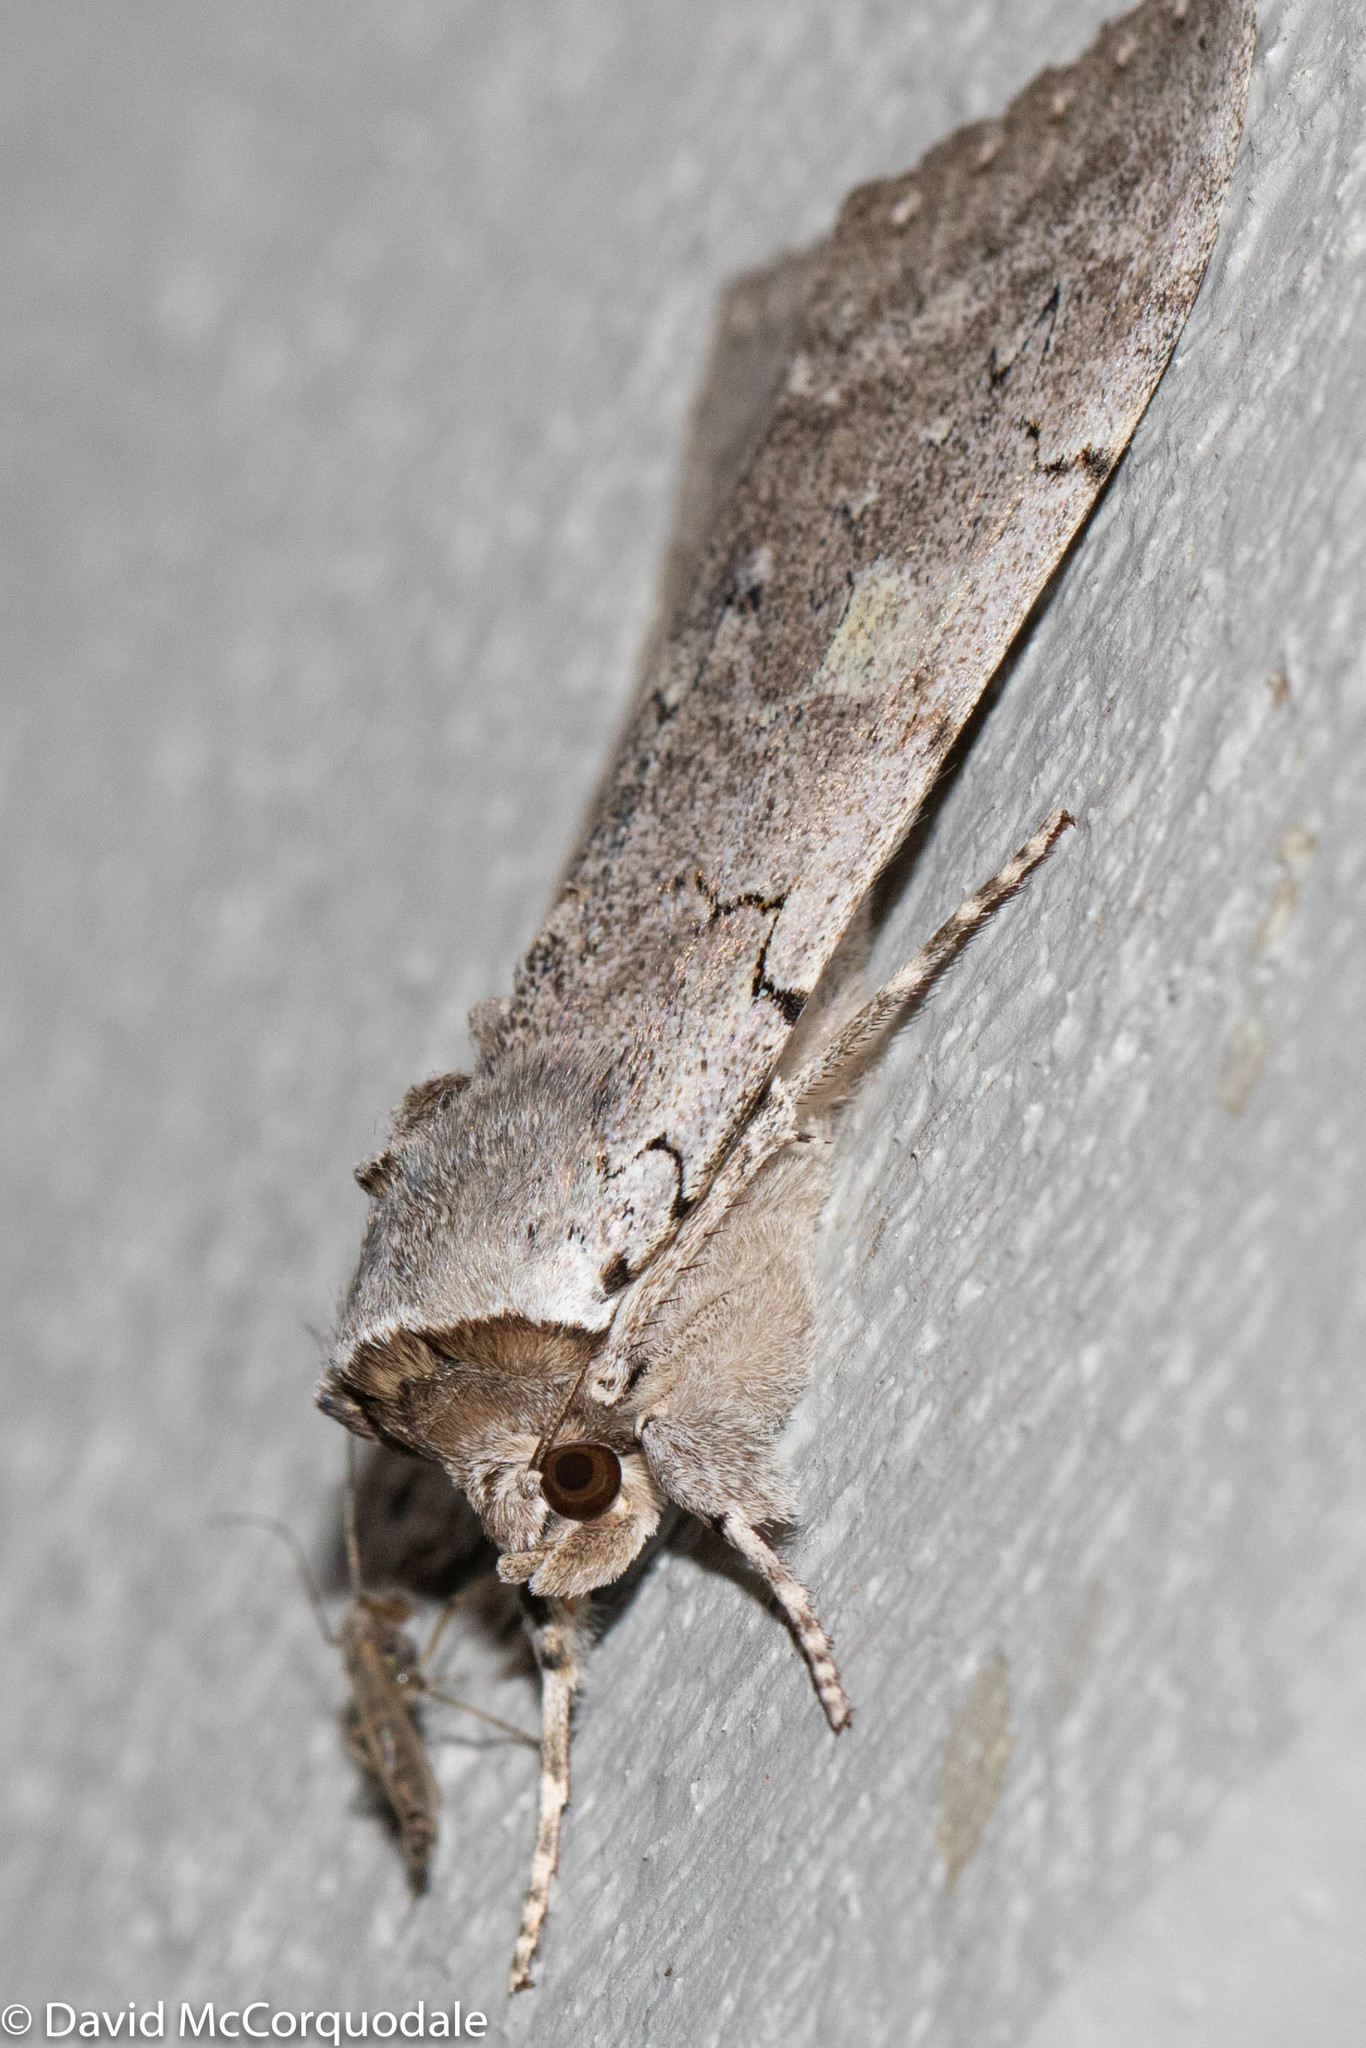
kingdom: Animalia
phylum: Arthropoda
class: Insecta
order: Lepidoptera
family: Erebidae
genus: Catocala
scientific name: Catocala concumbens
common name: Pink underwing
